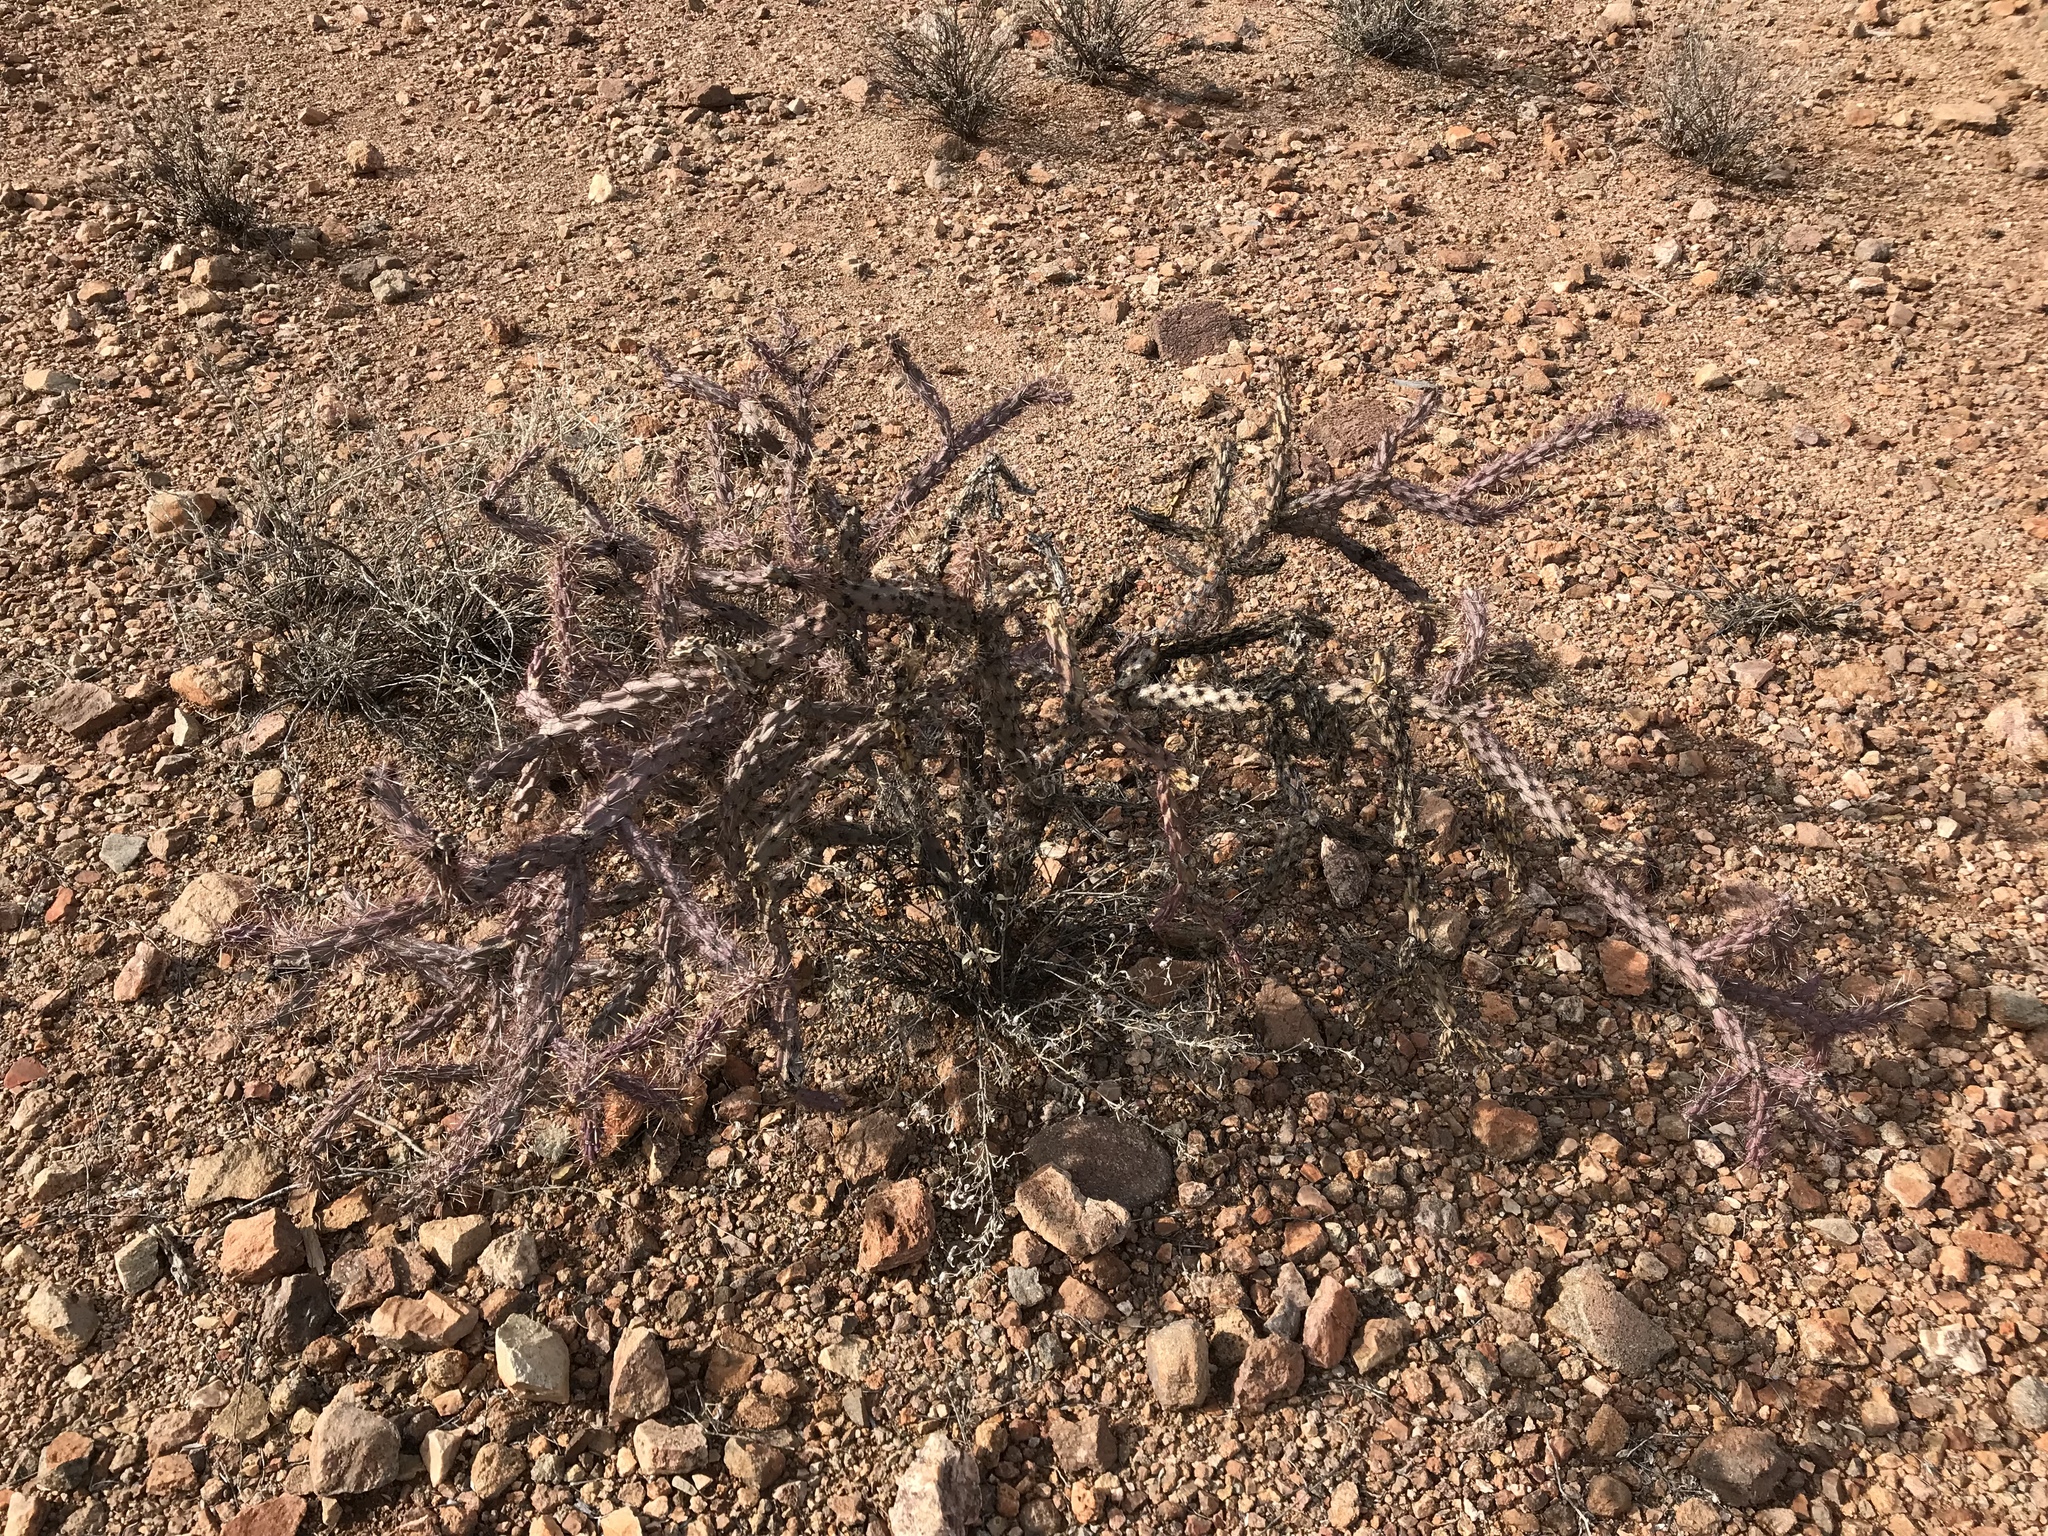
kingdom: Plantae
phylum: Tracheophyta
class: Magnoliopsida
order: Caryophyllales
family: Cactaceae
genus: Cylindropuntia
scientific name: Cylindropuntia thurberi
